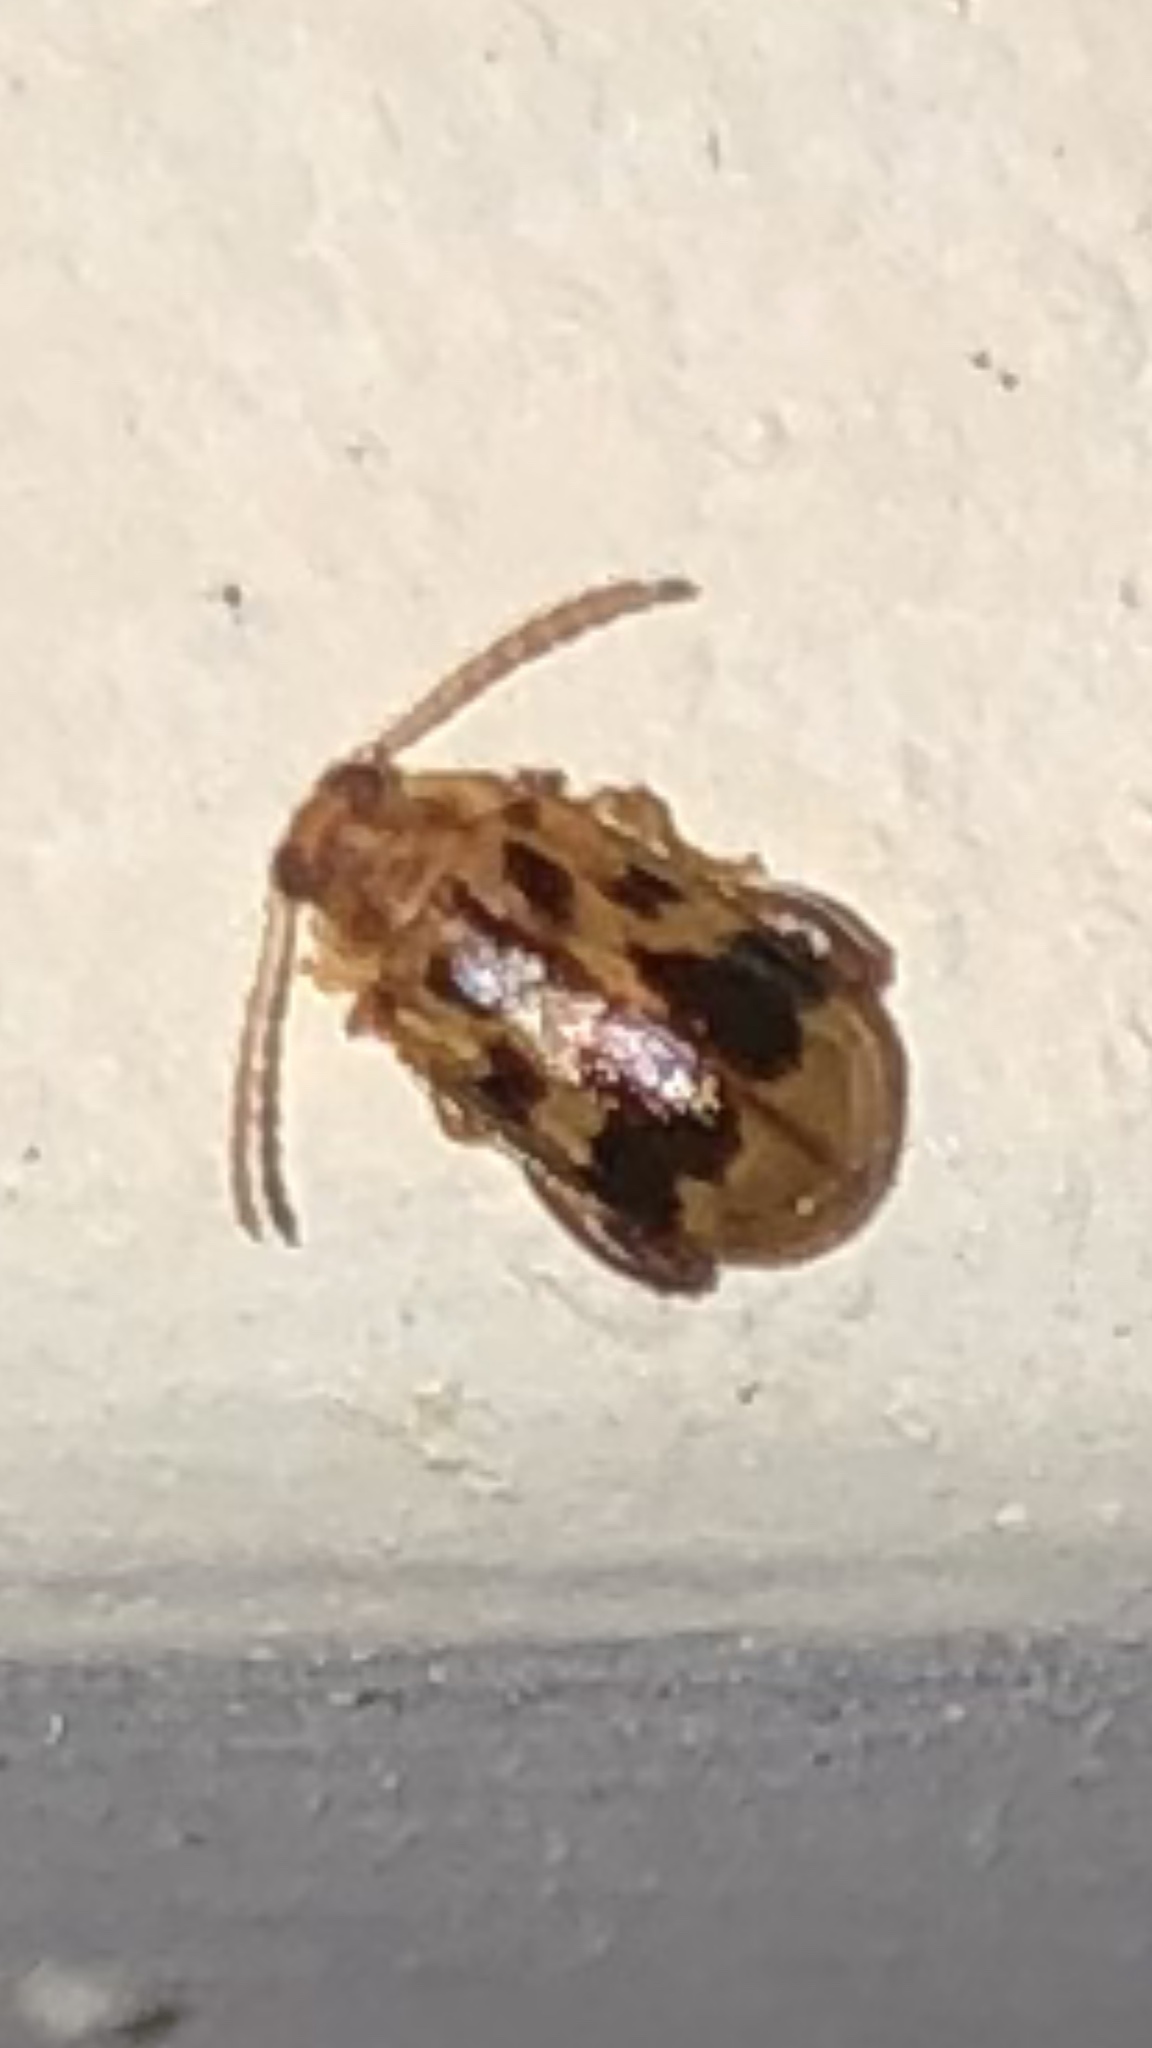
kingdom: Animalia
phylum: Arthropoda
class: Insecta
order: Coleoptera
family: Chrysomelidae
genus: Capraita
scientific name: Capraita sexmaculata
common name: Charlie brown flea beetle
